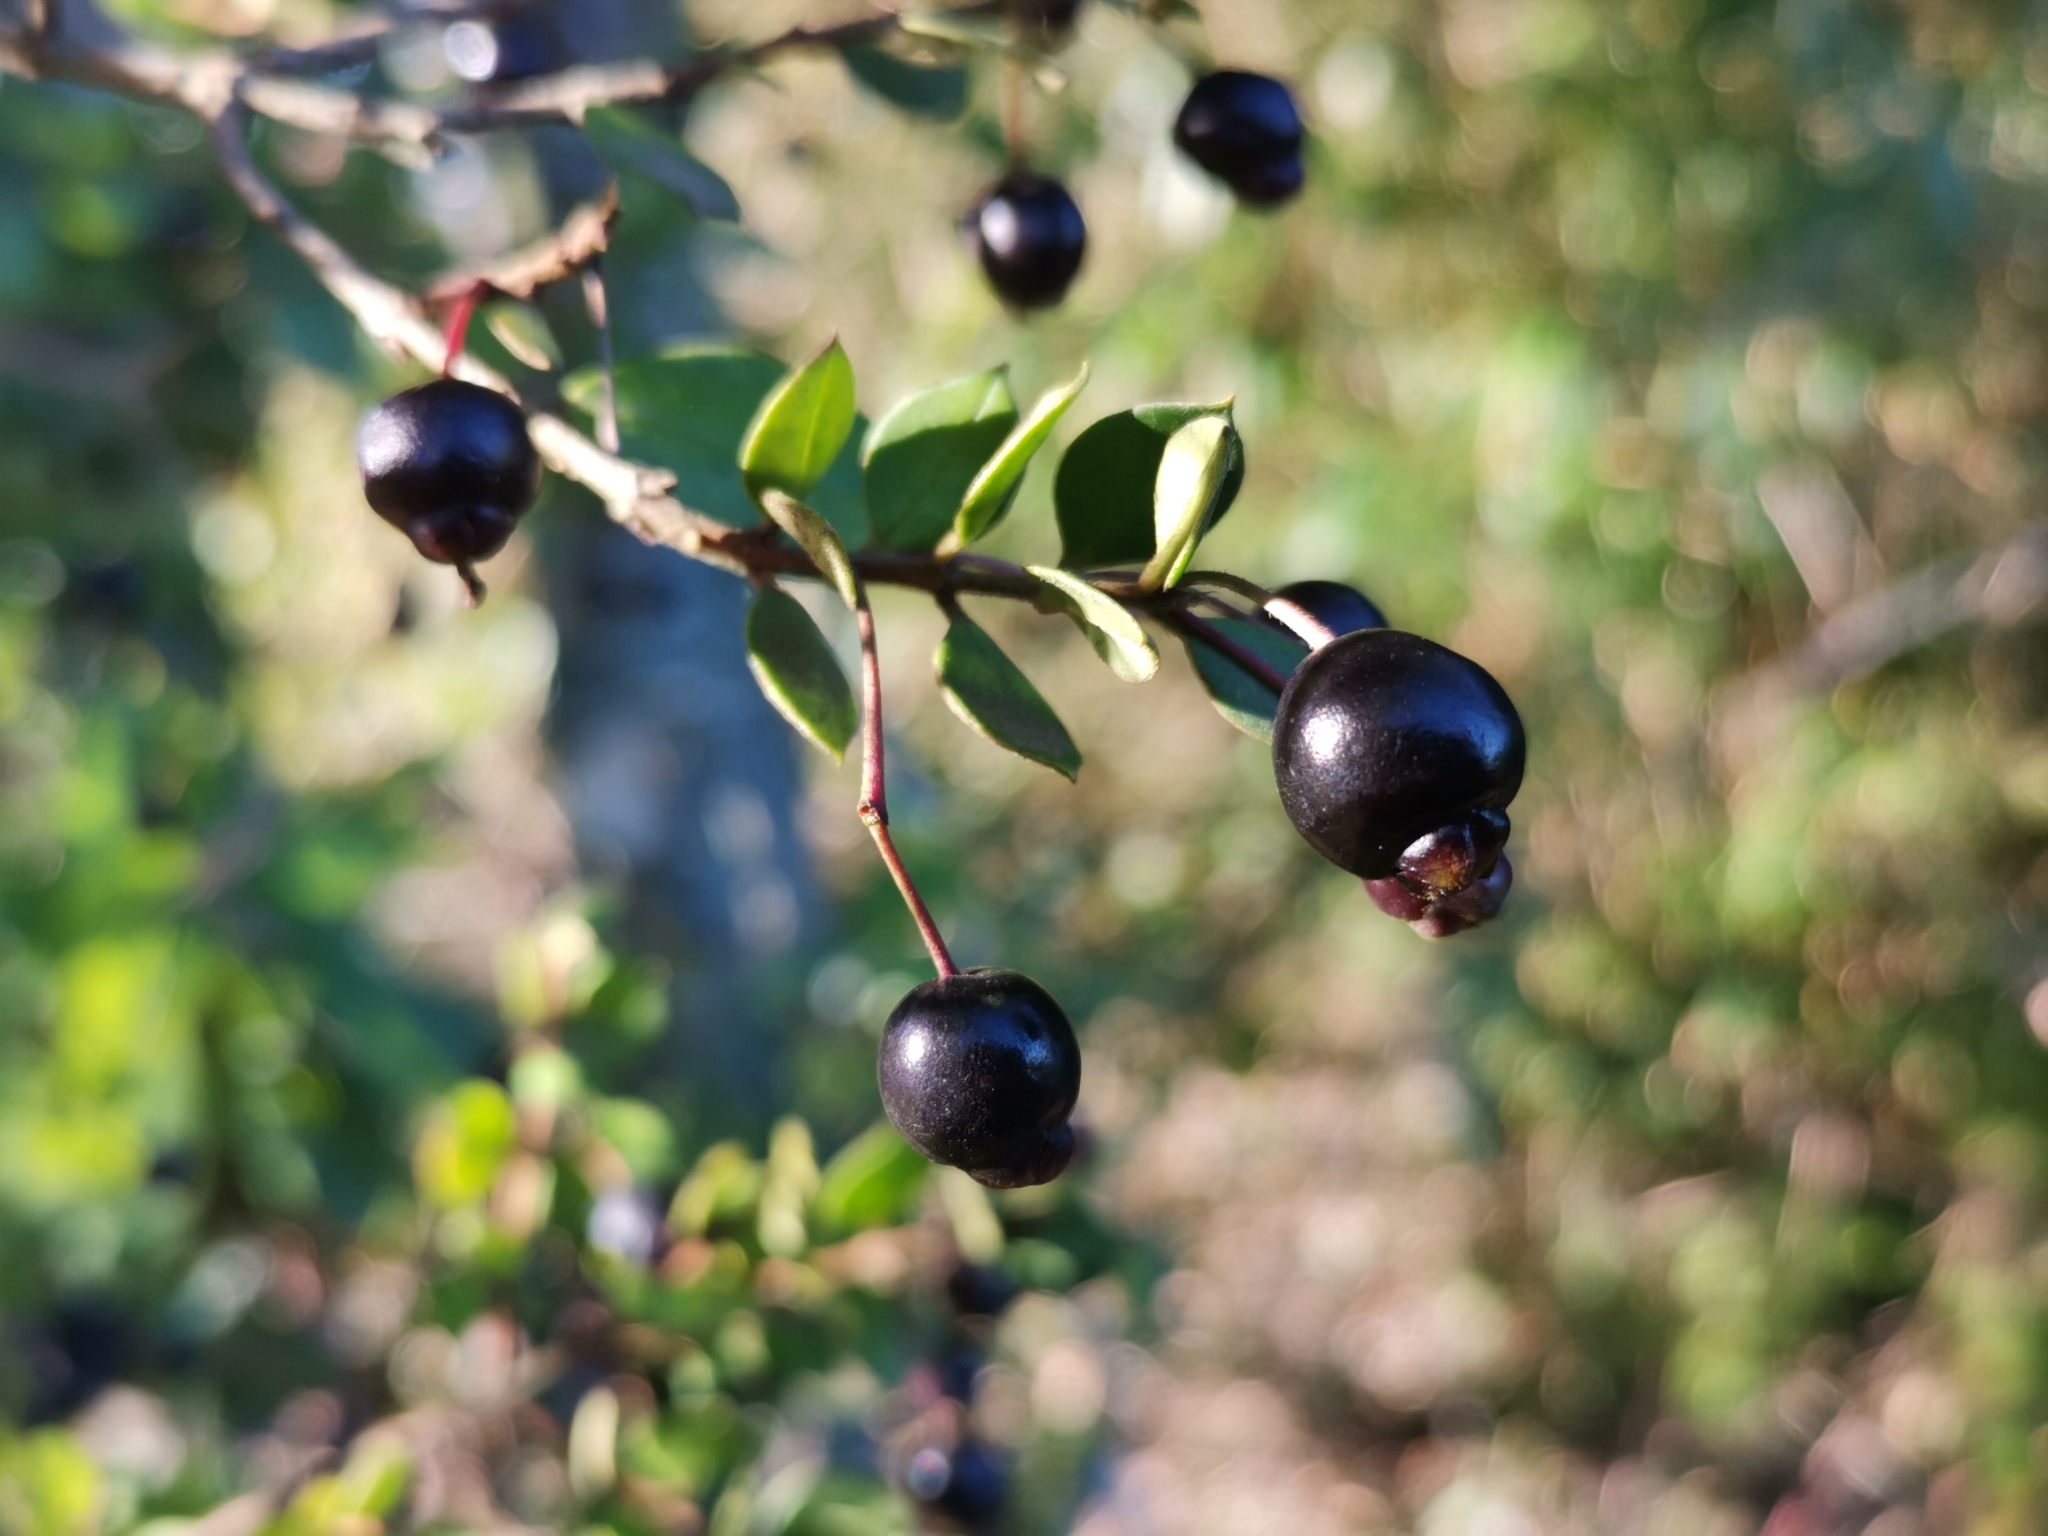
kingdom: Plantae
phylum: Tracheophyta
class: Magnoliopsida
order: Myrtales
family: Myrtaceae
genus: Luma
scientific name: Luma apiculata
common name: Chilean myrtle
